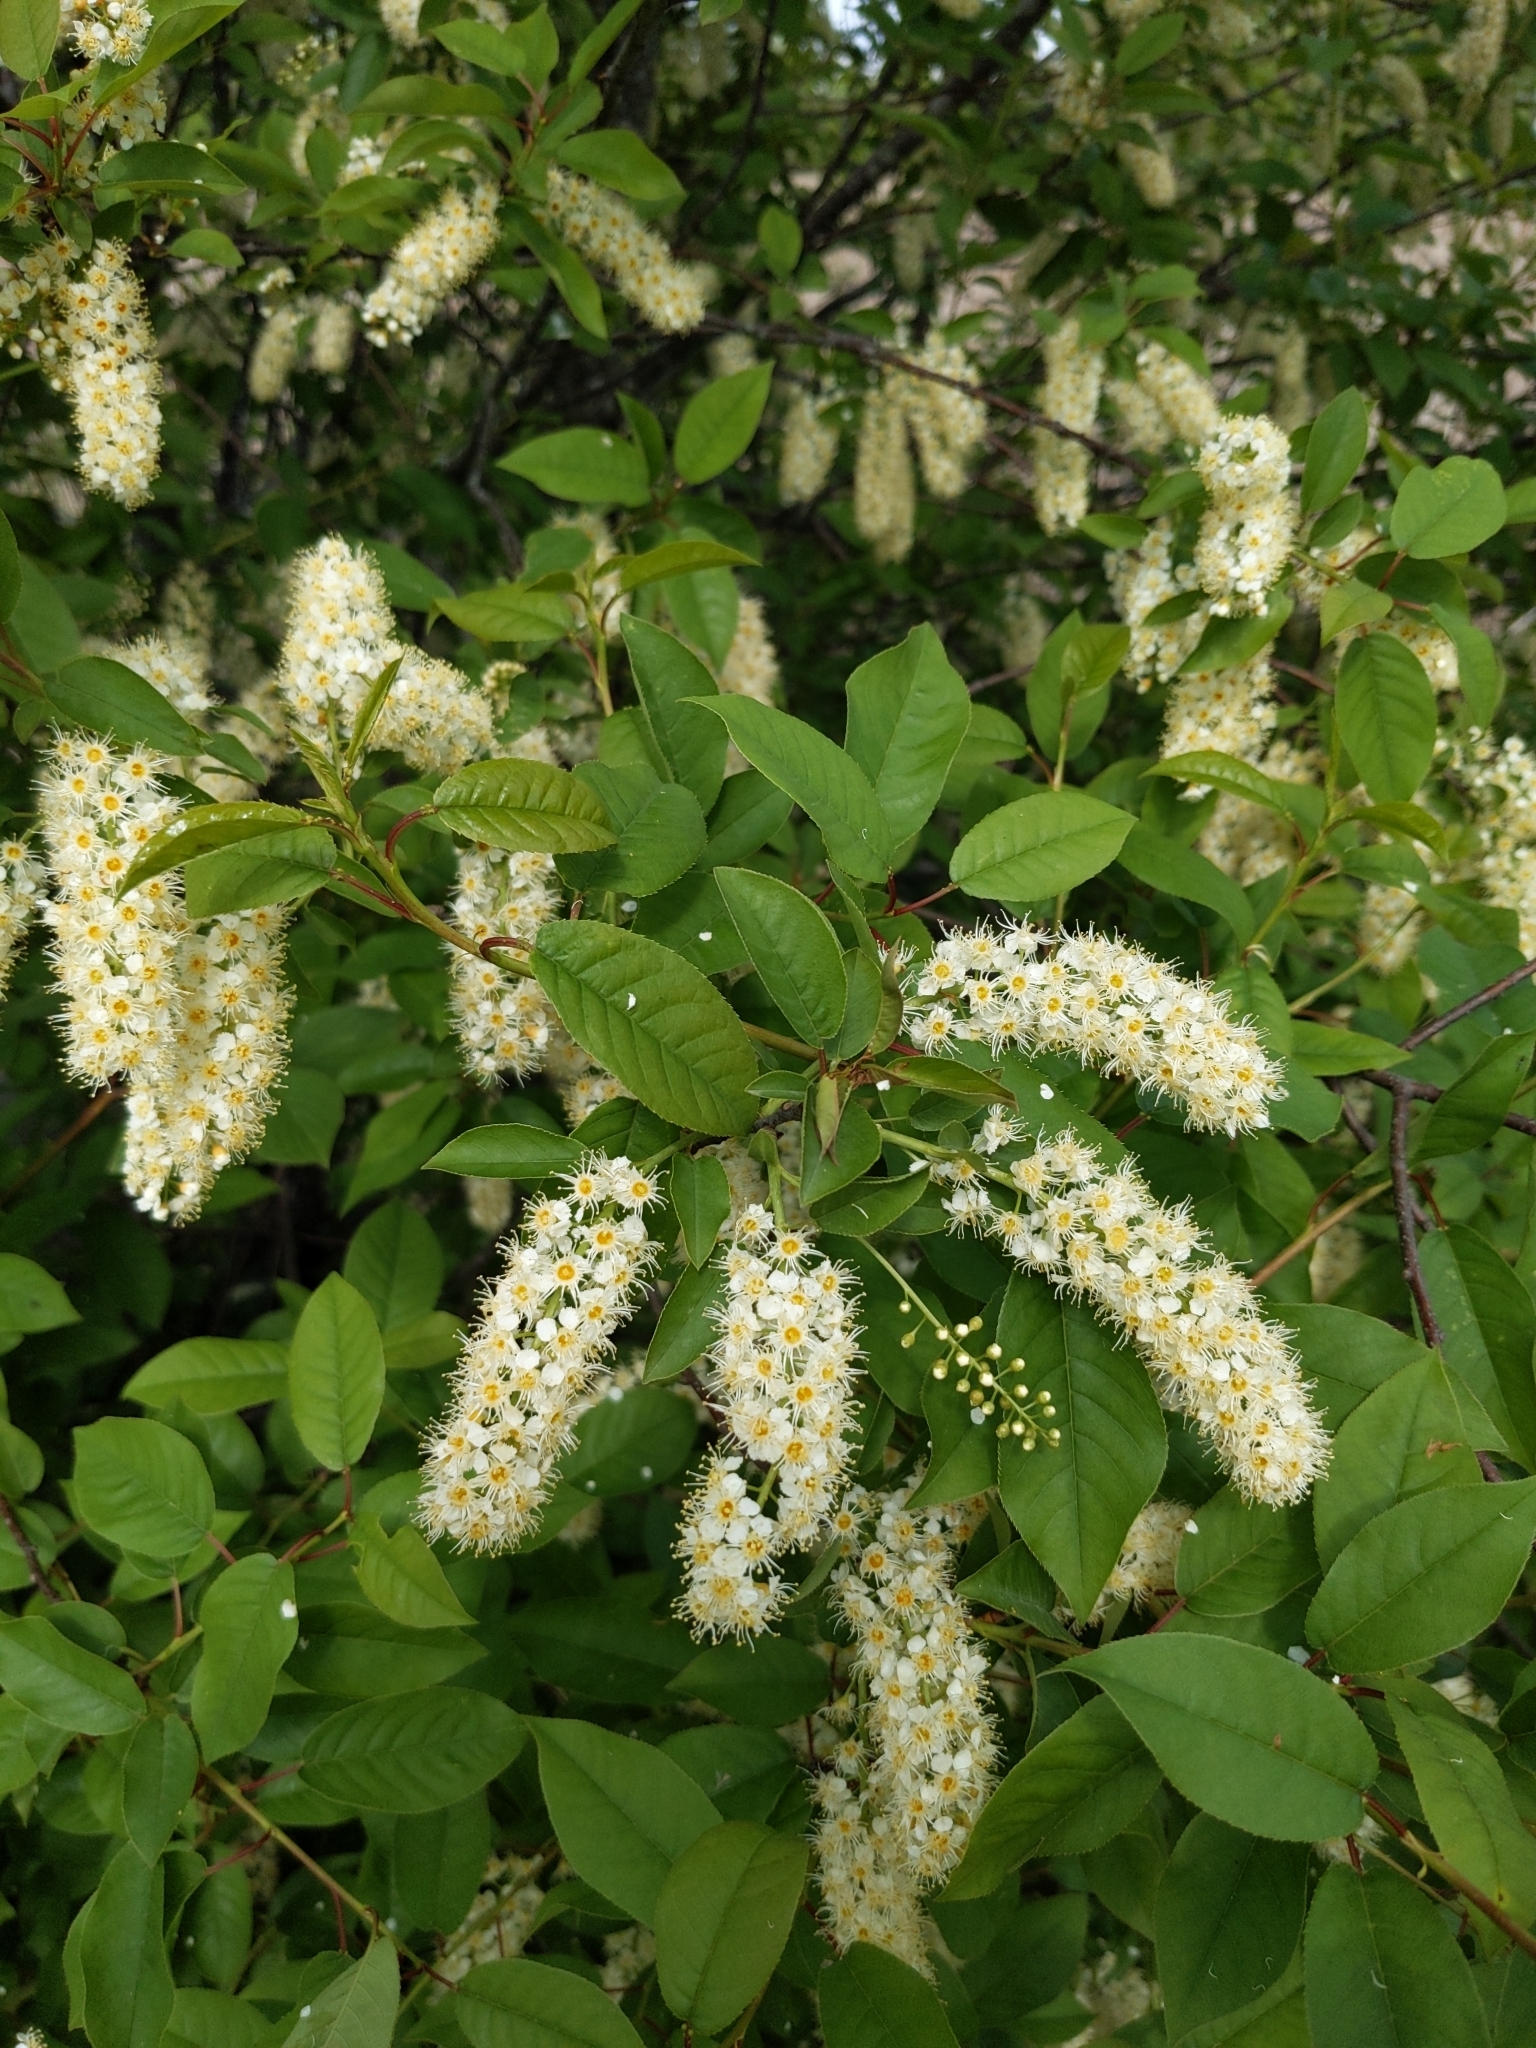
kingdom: Plantae
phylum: Tracheophyta
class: Magnoliopsida
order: Rosales
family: Rosaceae
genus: Prunus
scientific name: Prunus virginiana
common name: Chokecherry
